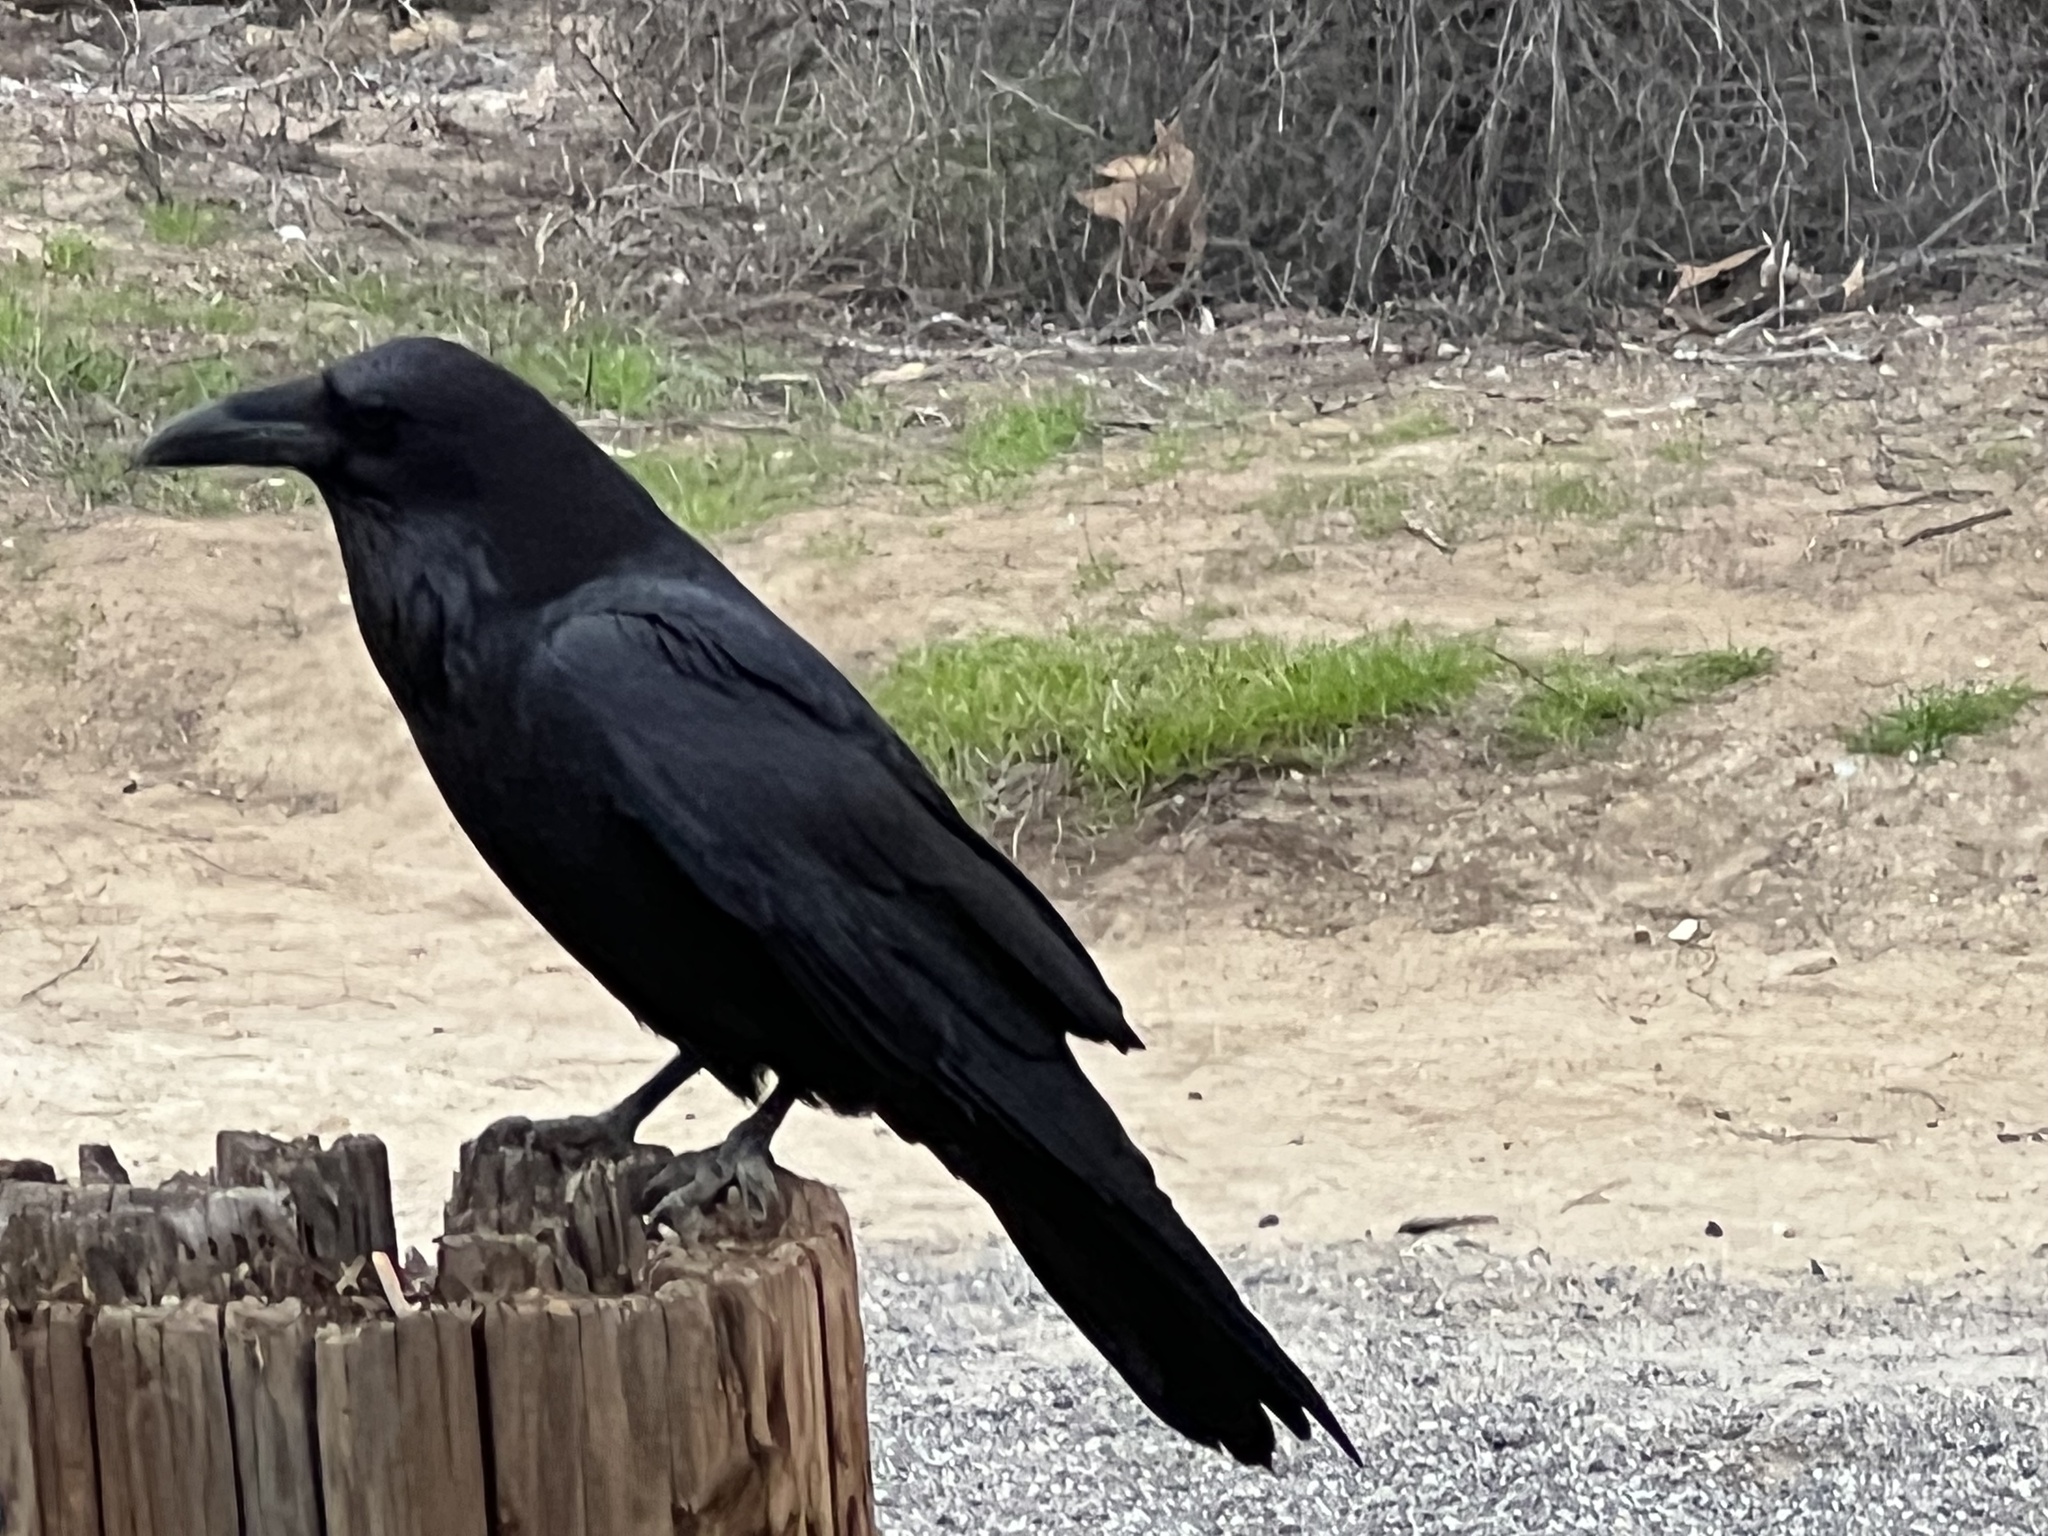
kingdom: Animalia
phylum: Chordata
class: Aves
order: Passeriformes
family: Corvidae
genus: Corvus
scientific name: Corvus corax
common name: Common raven
